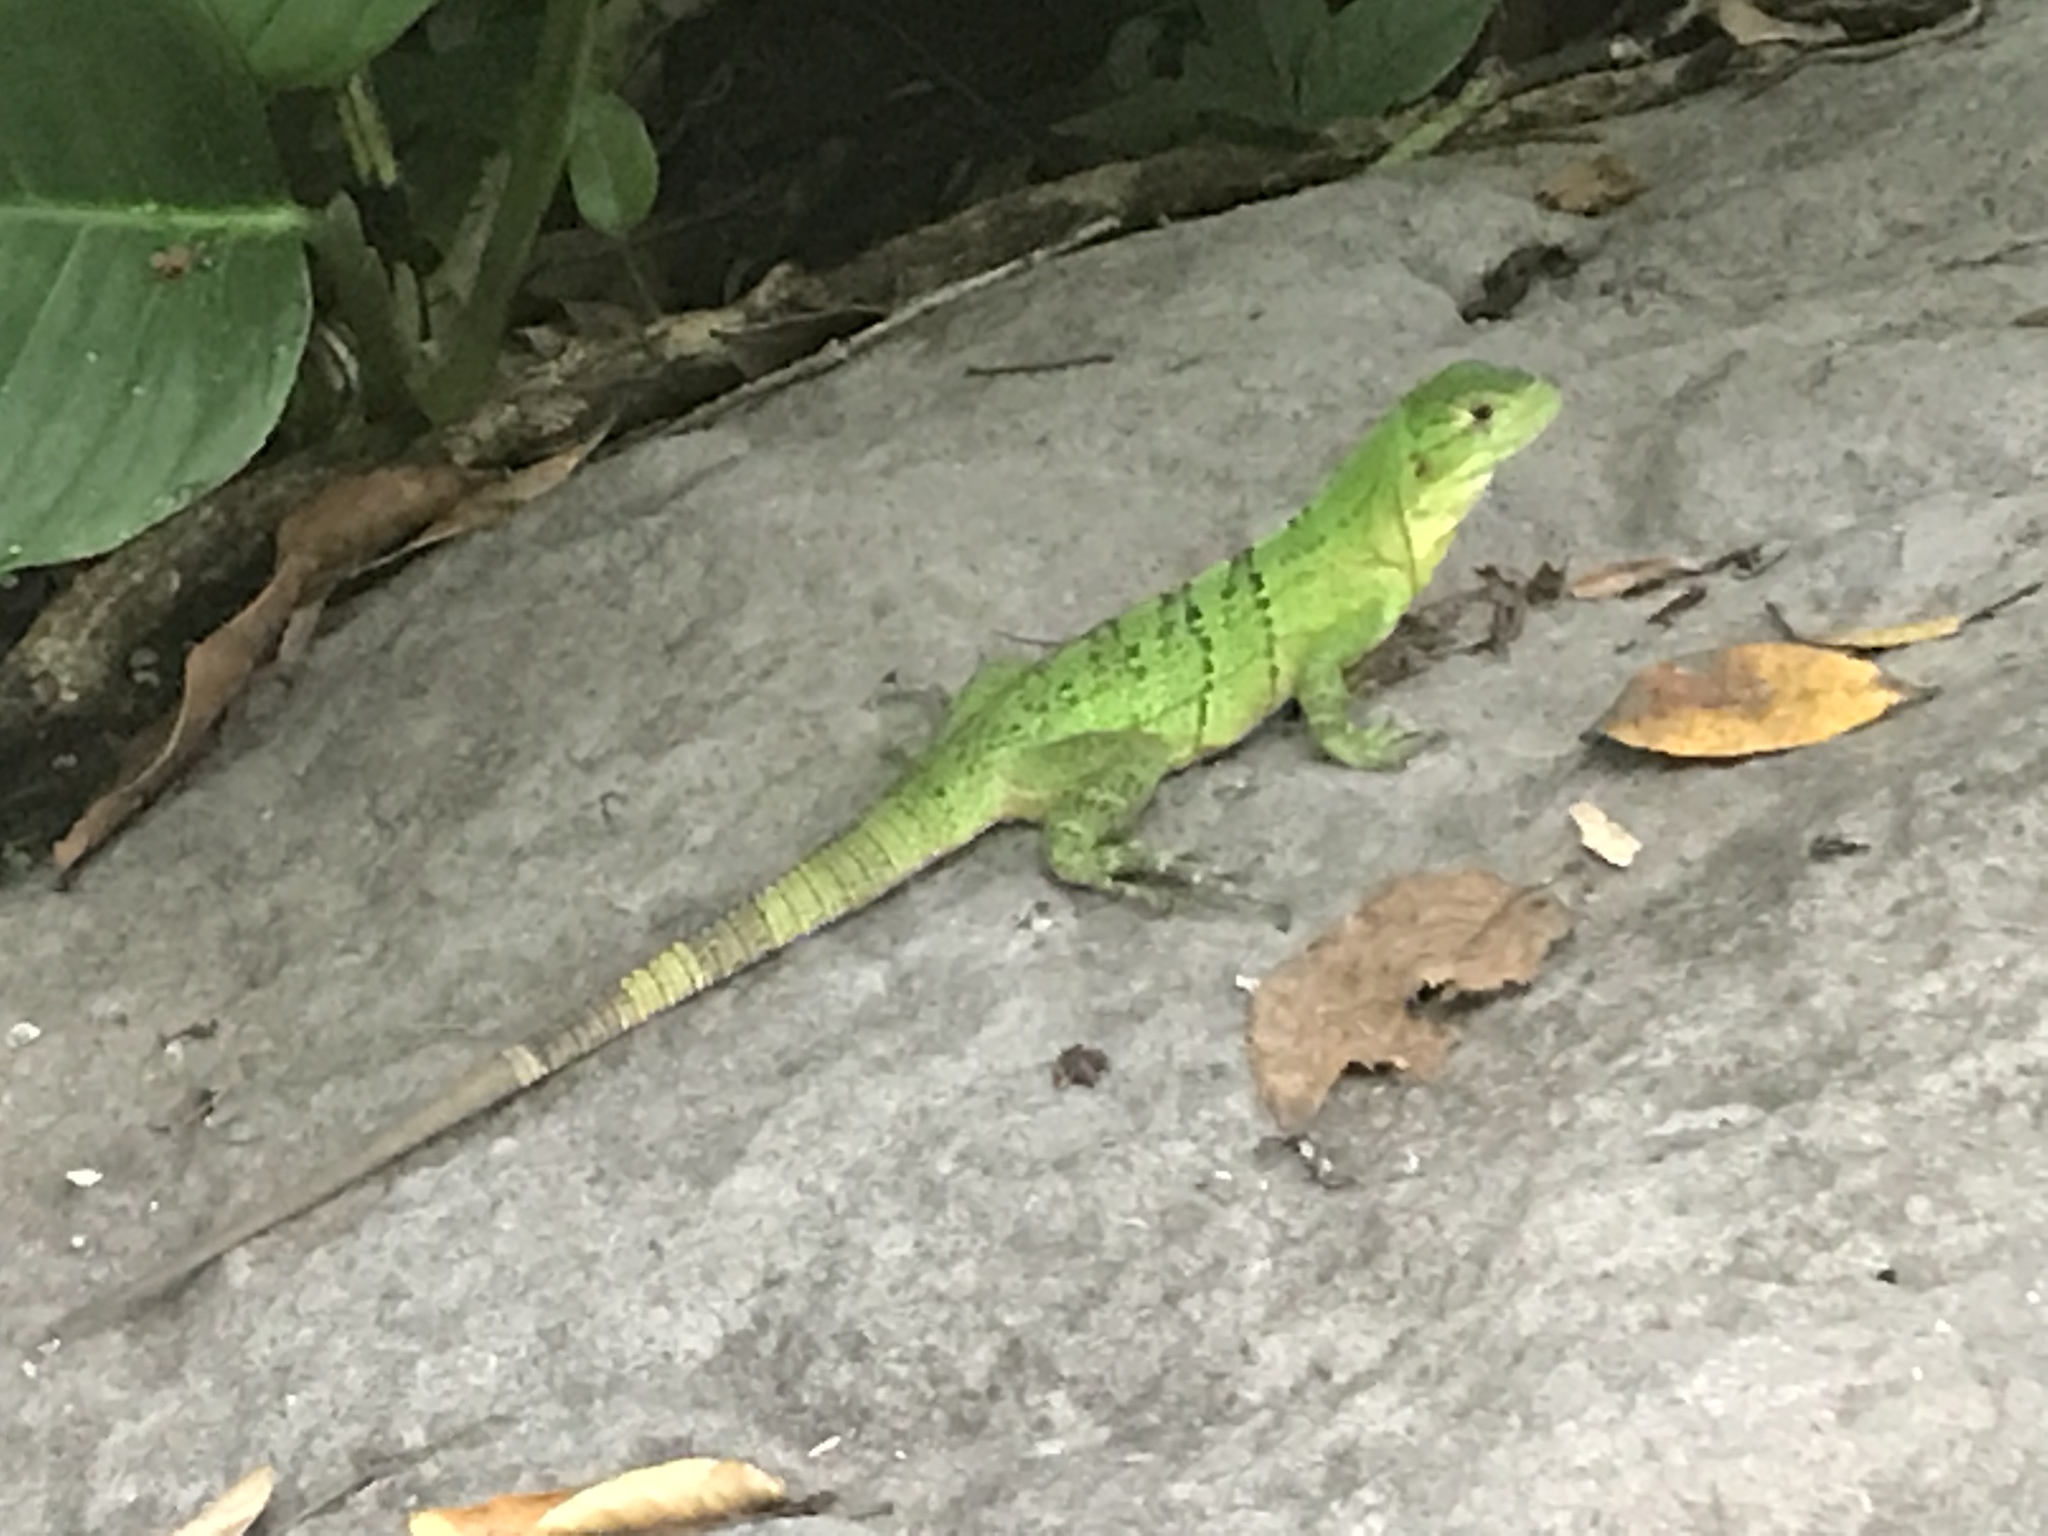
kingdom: Animalia
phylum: Chordata
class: Squamata
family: Iguanidae
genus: Ctenosaura
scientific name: Ctenosaura similis
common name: Black spiny-tailed iguana
